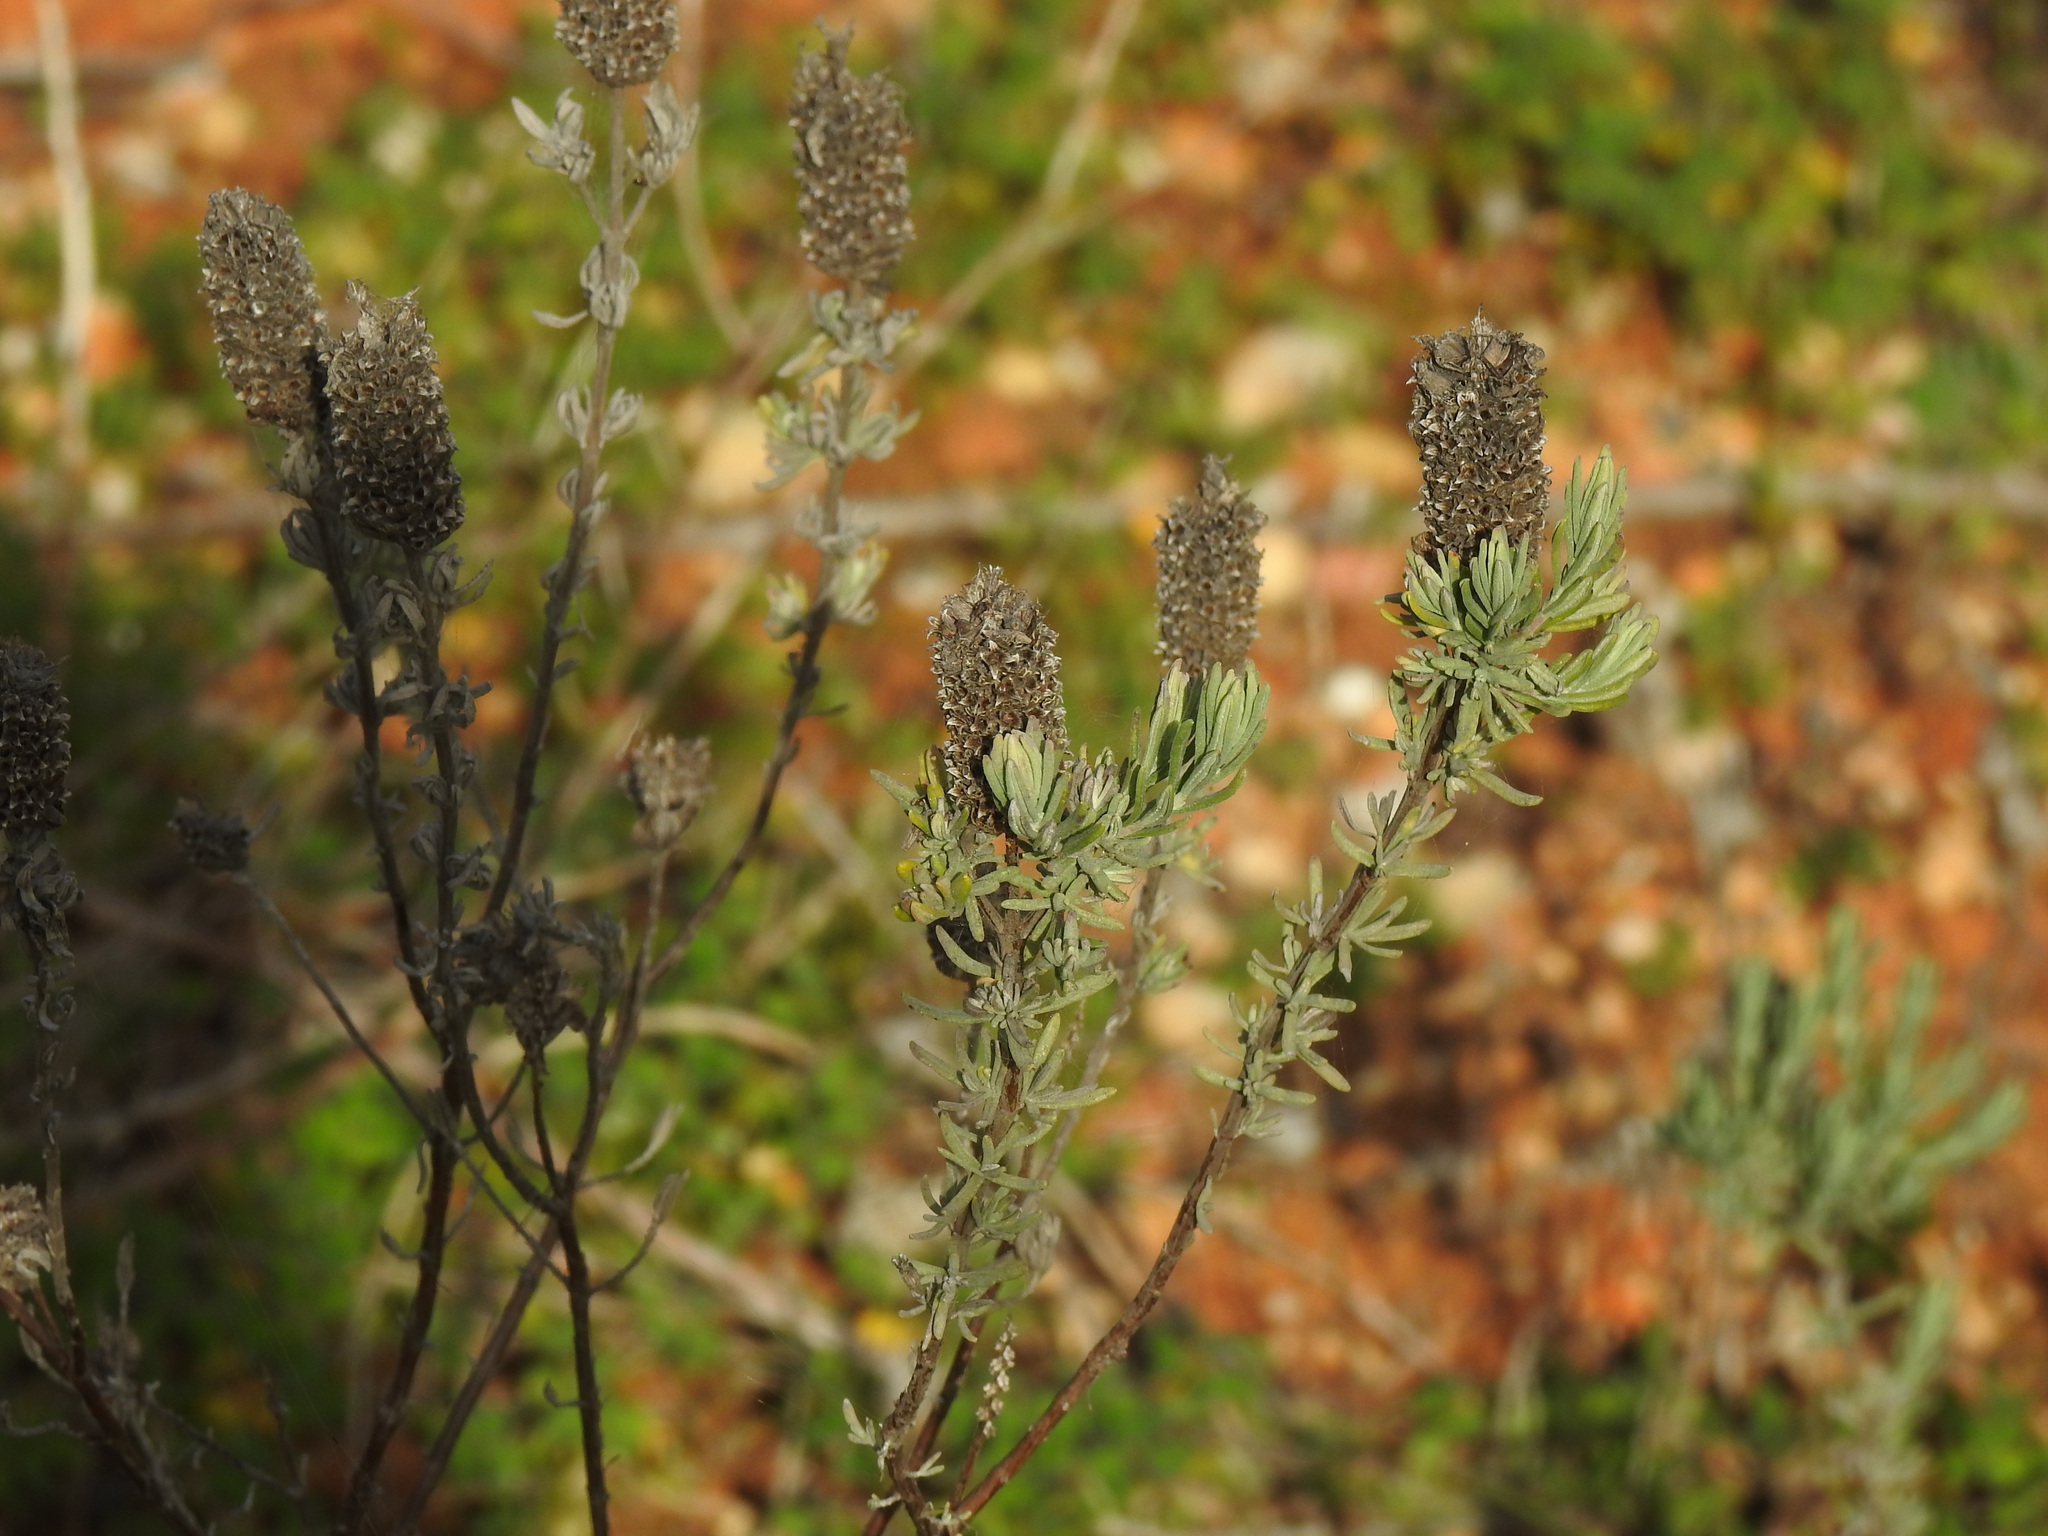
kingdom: Plantae
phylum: Tracheophyta
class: Magnoliopsida
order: Lamiales
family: Lamiaceae
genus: Lavandula
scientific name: Lavandula stoechas
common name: French lavender
